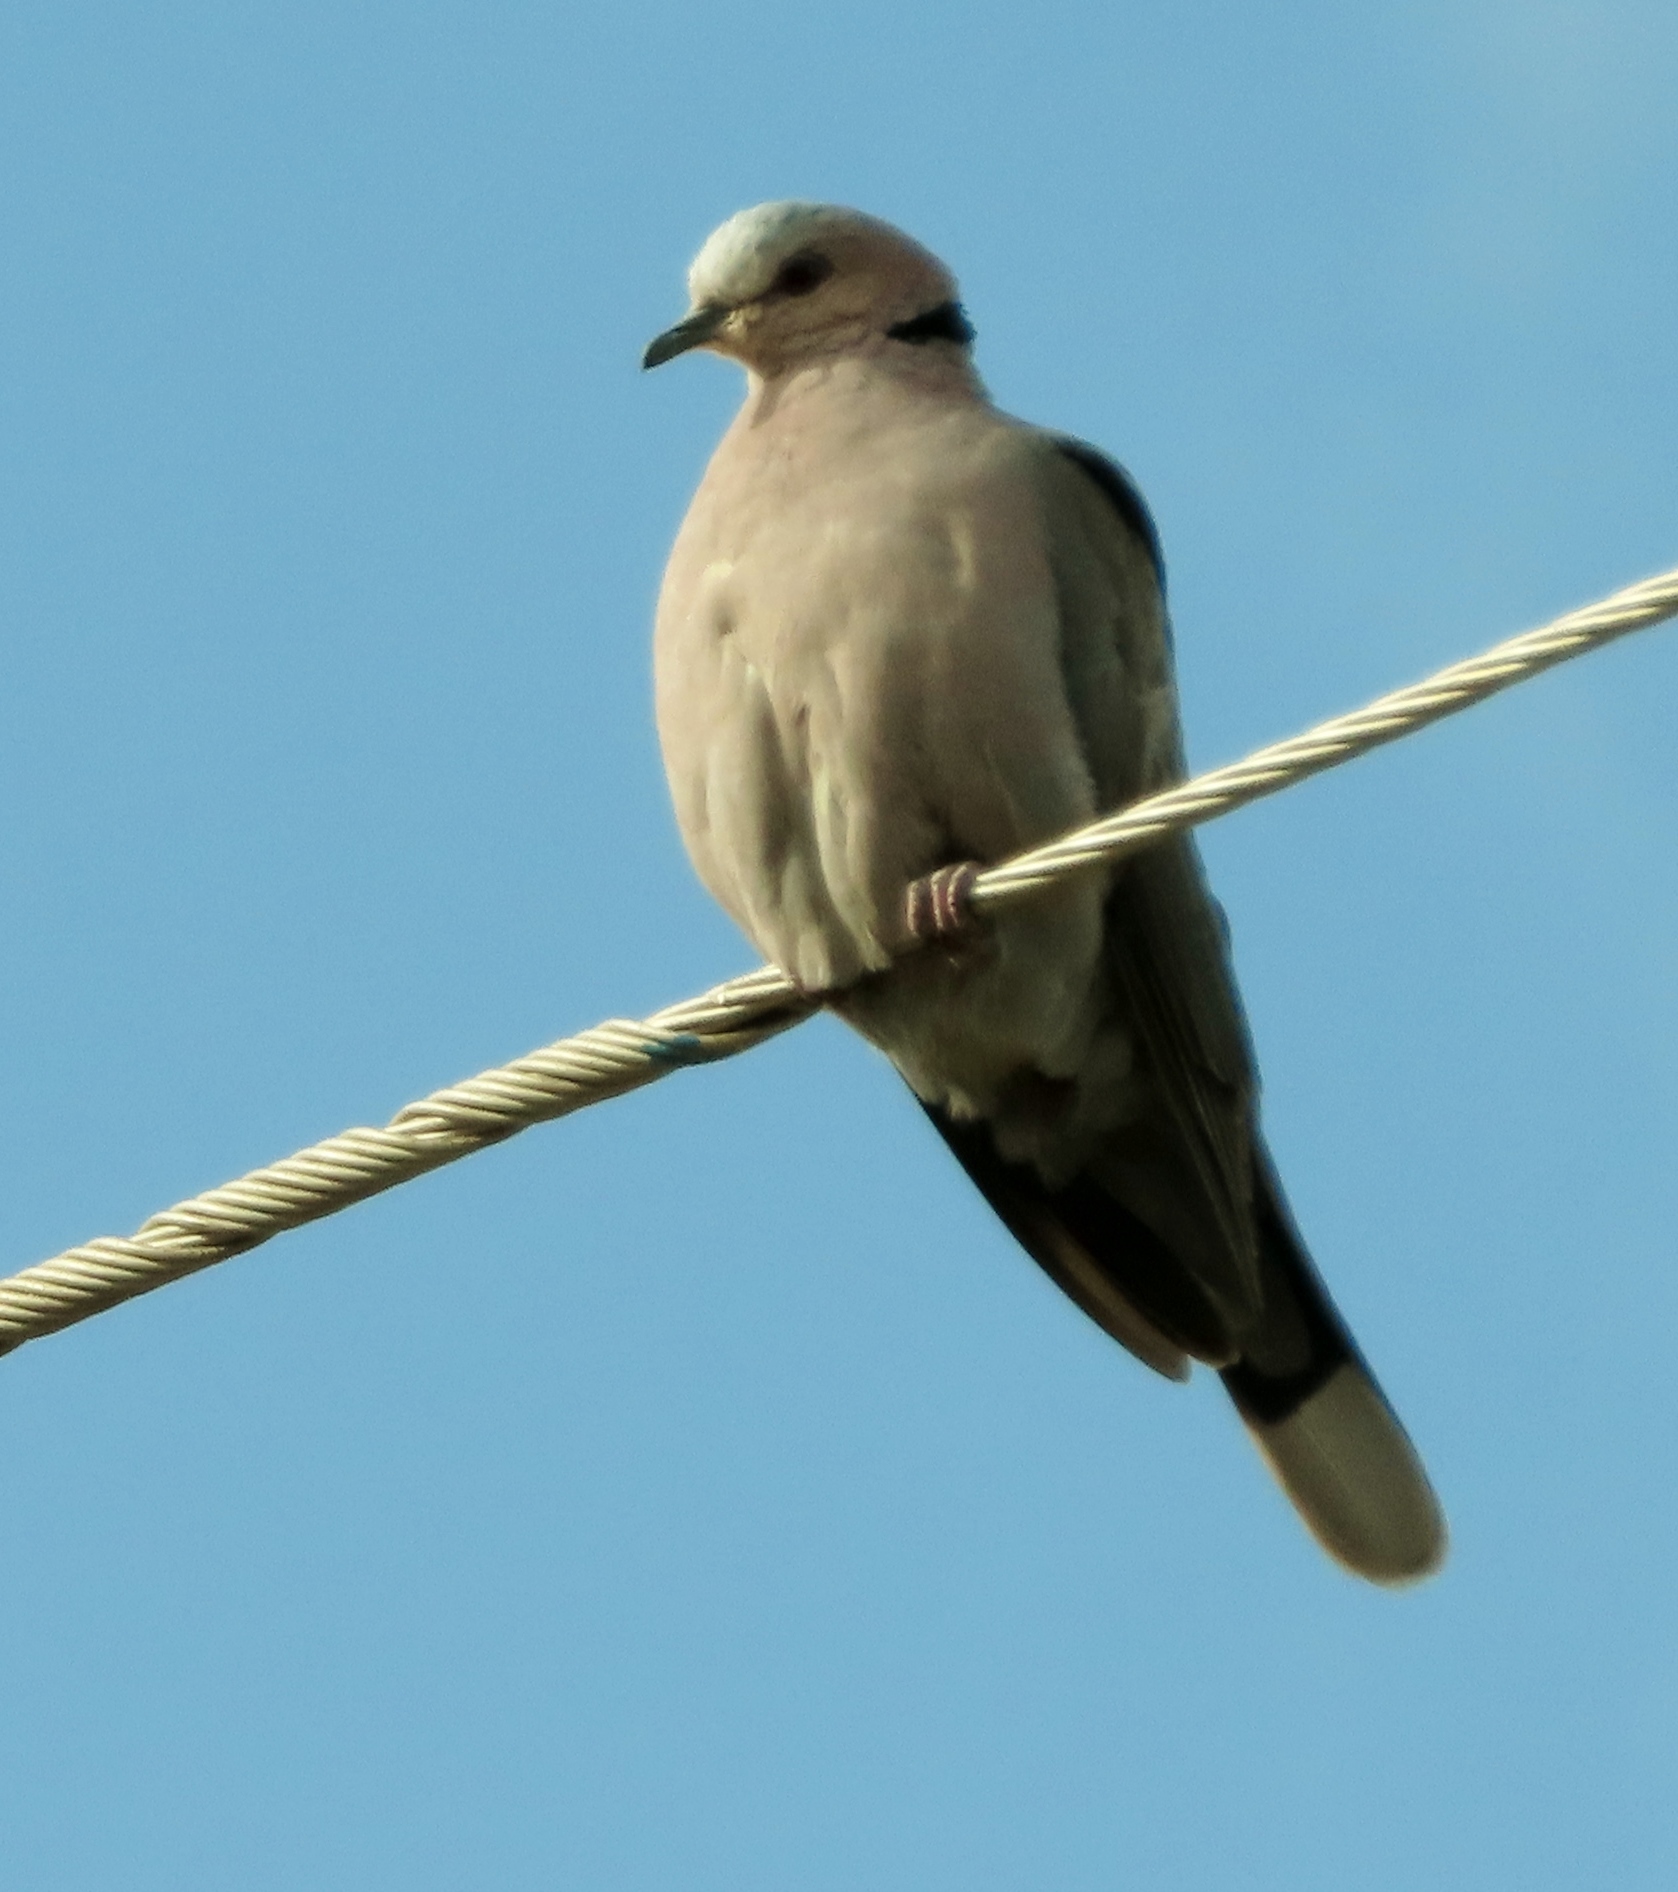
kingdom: Animalia
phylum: Chordata
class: Aves
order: Columbiformes
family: Columbidae
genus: Streptopelia
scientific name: Streptopelia semitorquata
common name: Red-eyed dove
